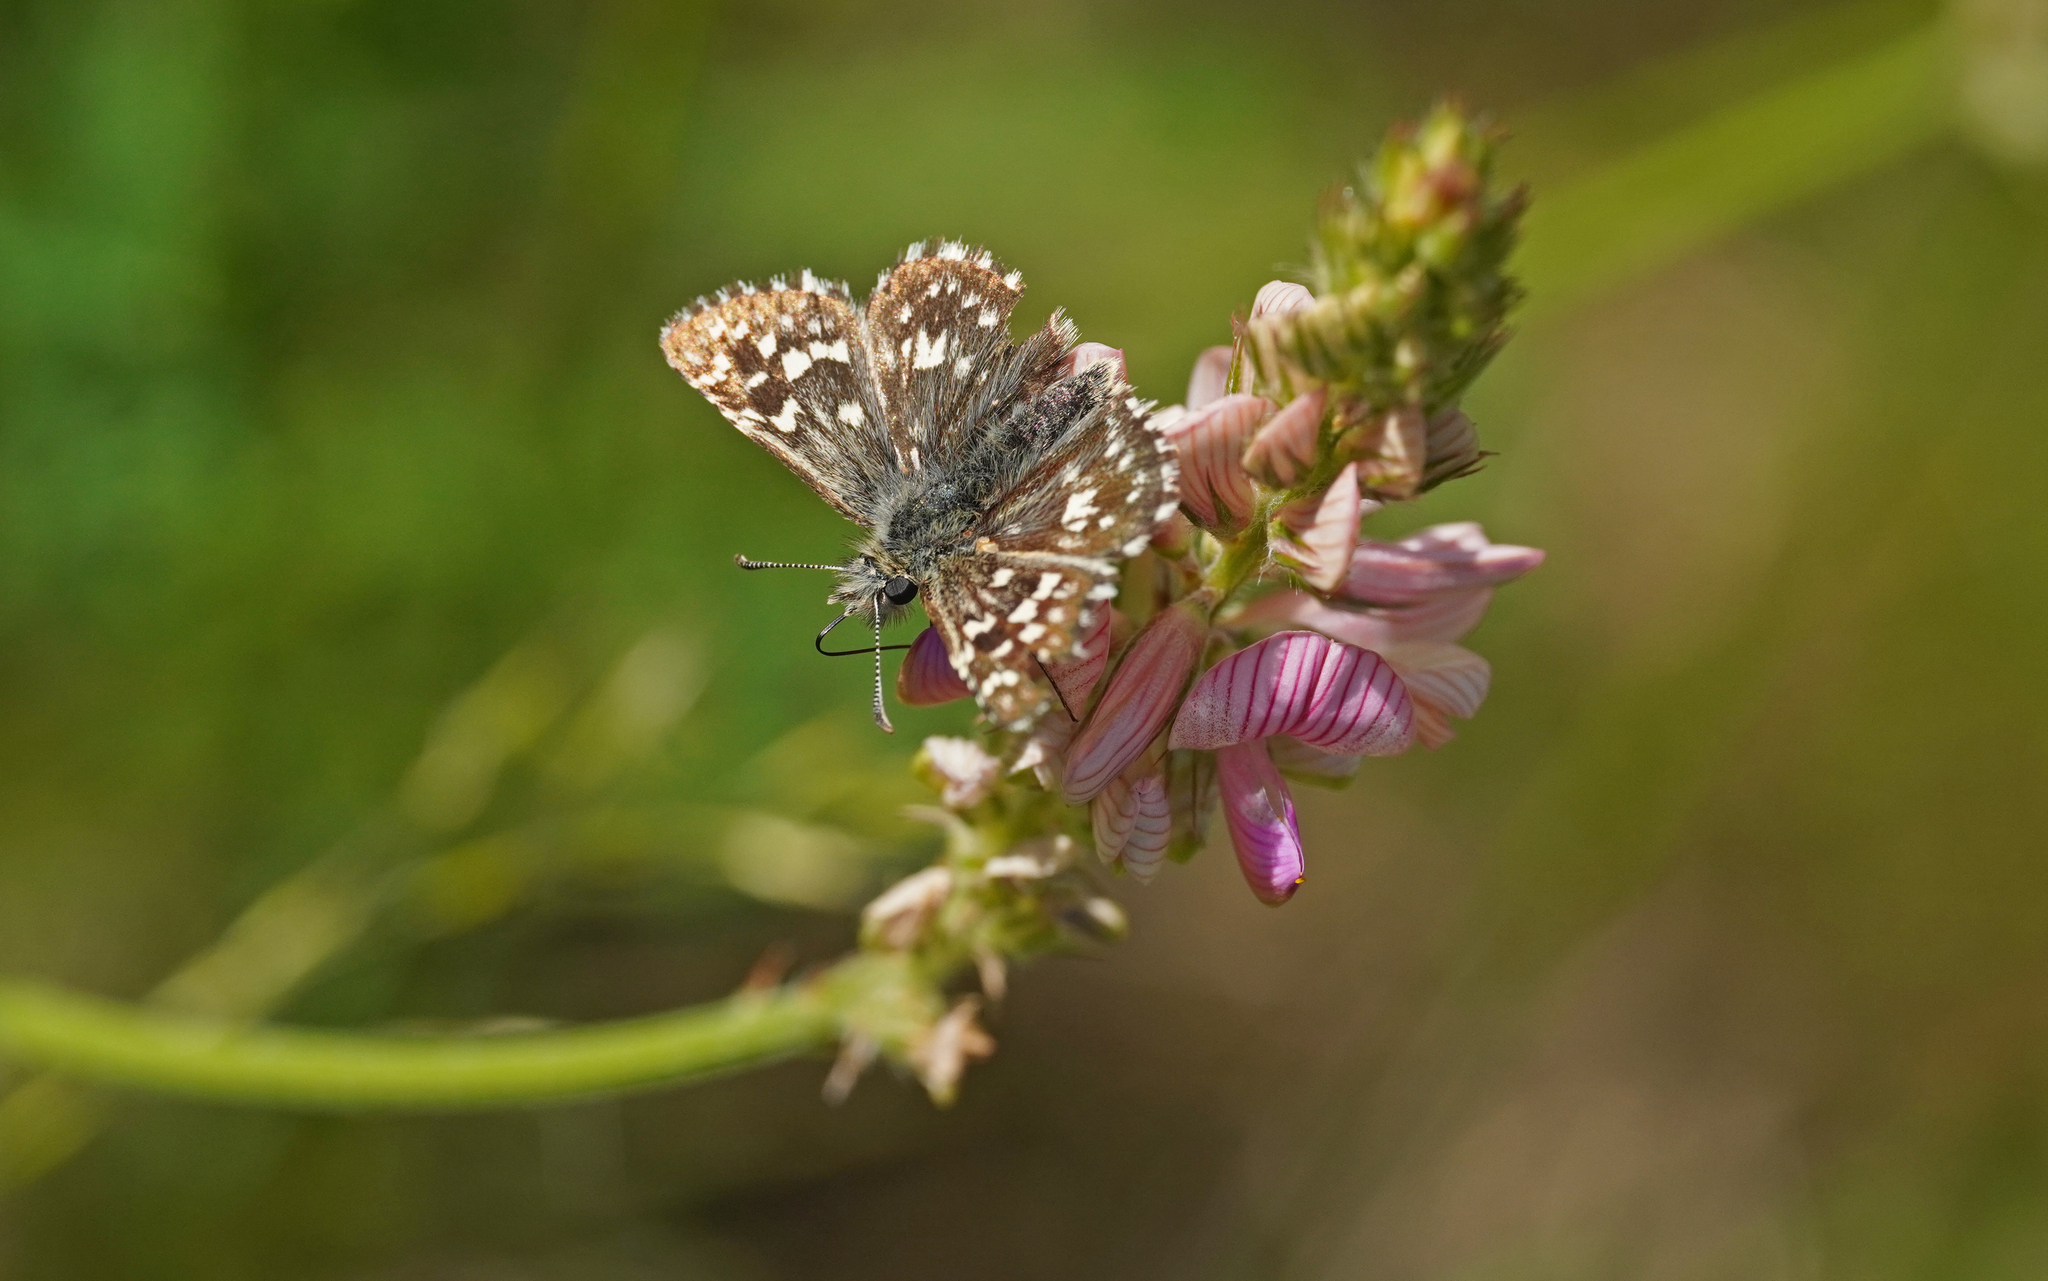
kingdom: Animalia
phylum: Arthropoda
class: Insecta
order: Lepidoptera
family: Hesperiidae
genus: Pyrgus
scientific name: Pyrgus malvae
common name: Grizzled skipper
